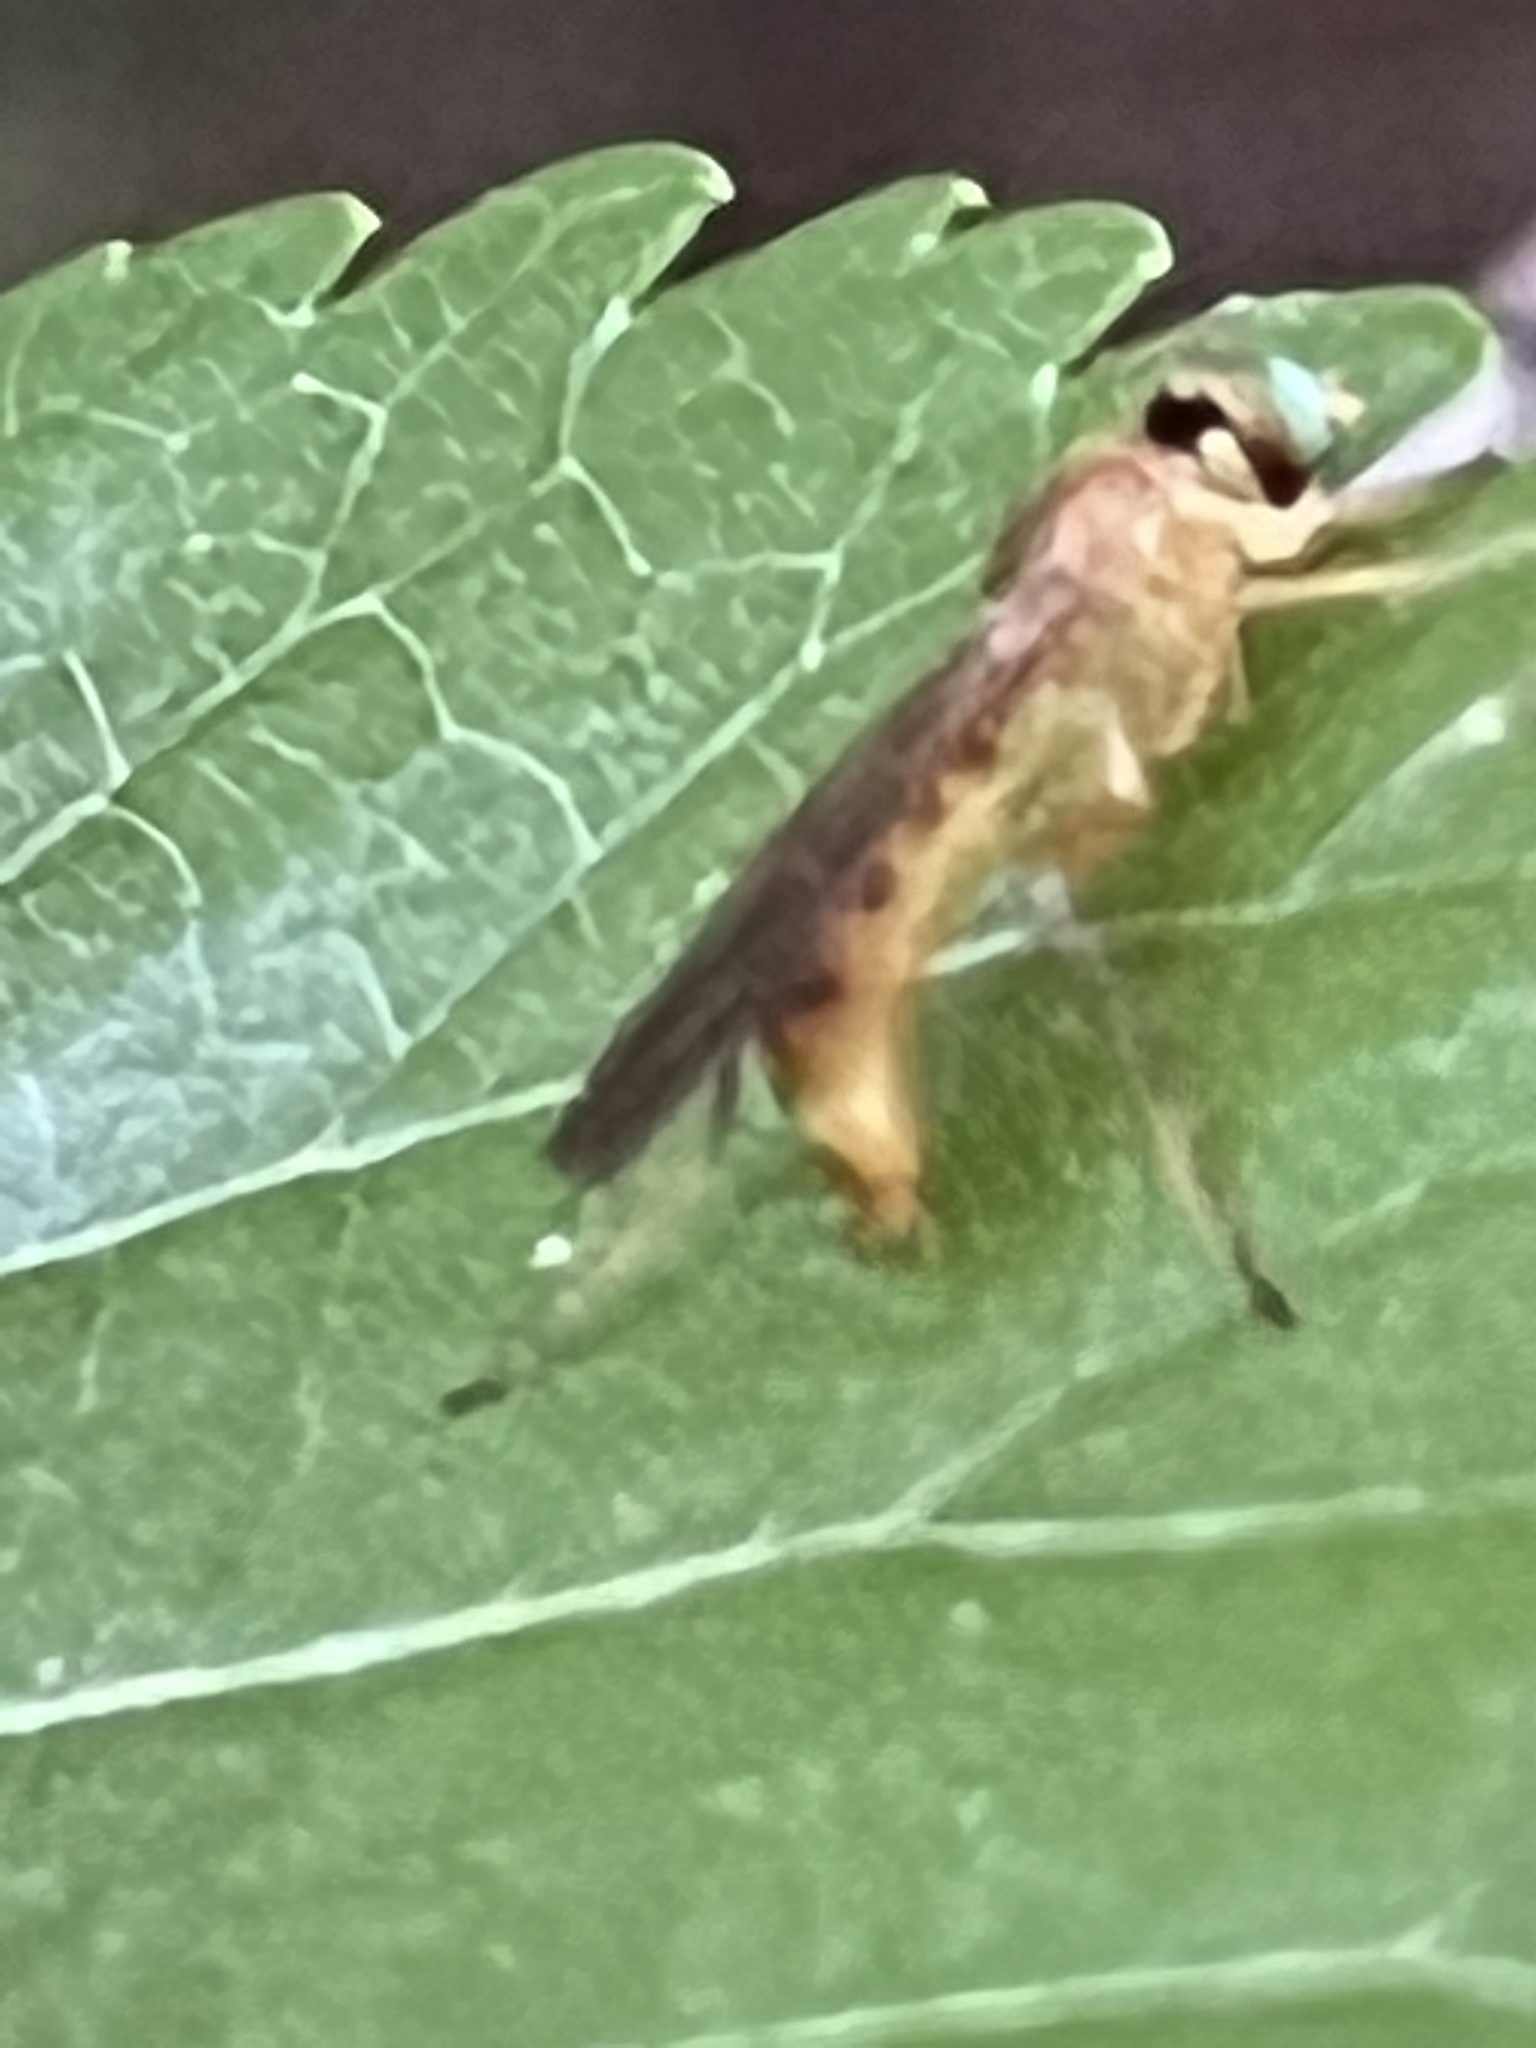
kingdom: Animalia
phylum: Arthropoda
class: Insecta
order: Diptera
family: Stratiomyidae
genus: Ptecticus
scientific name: Ptecticus trivittatus
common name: Compost fly
